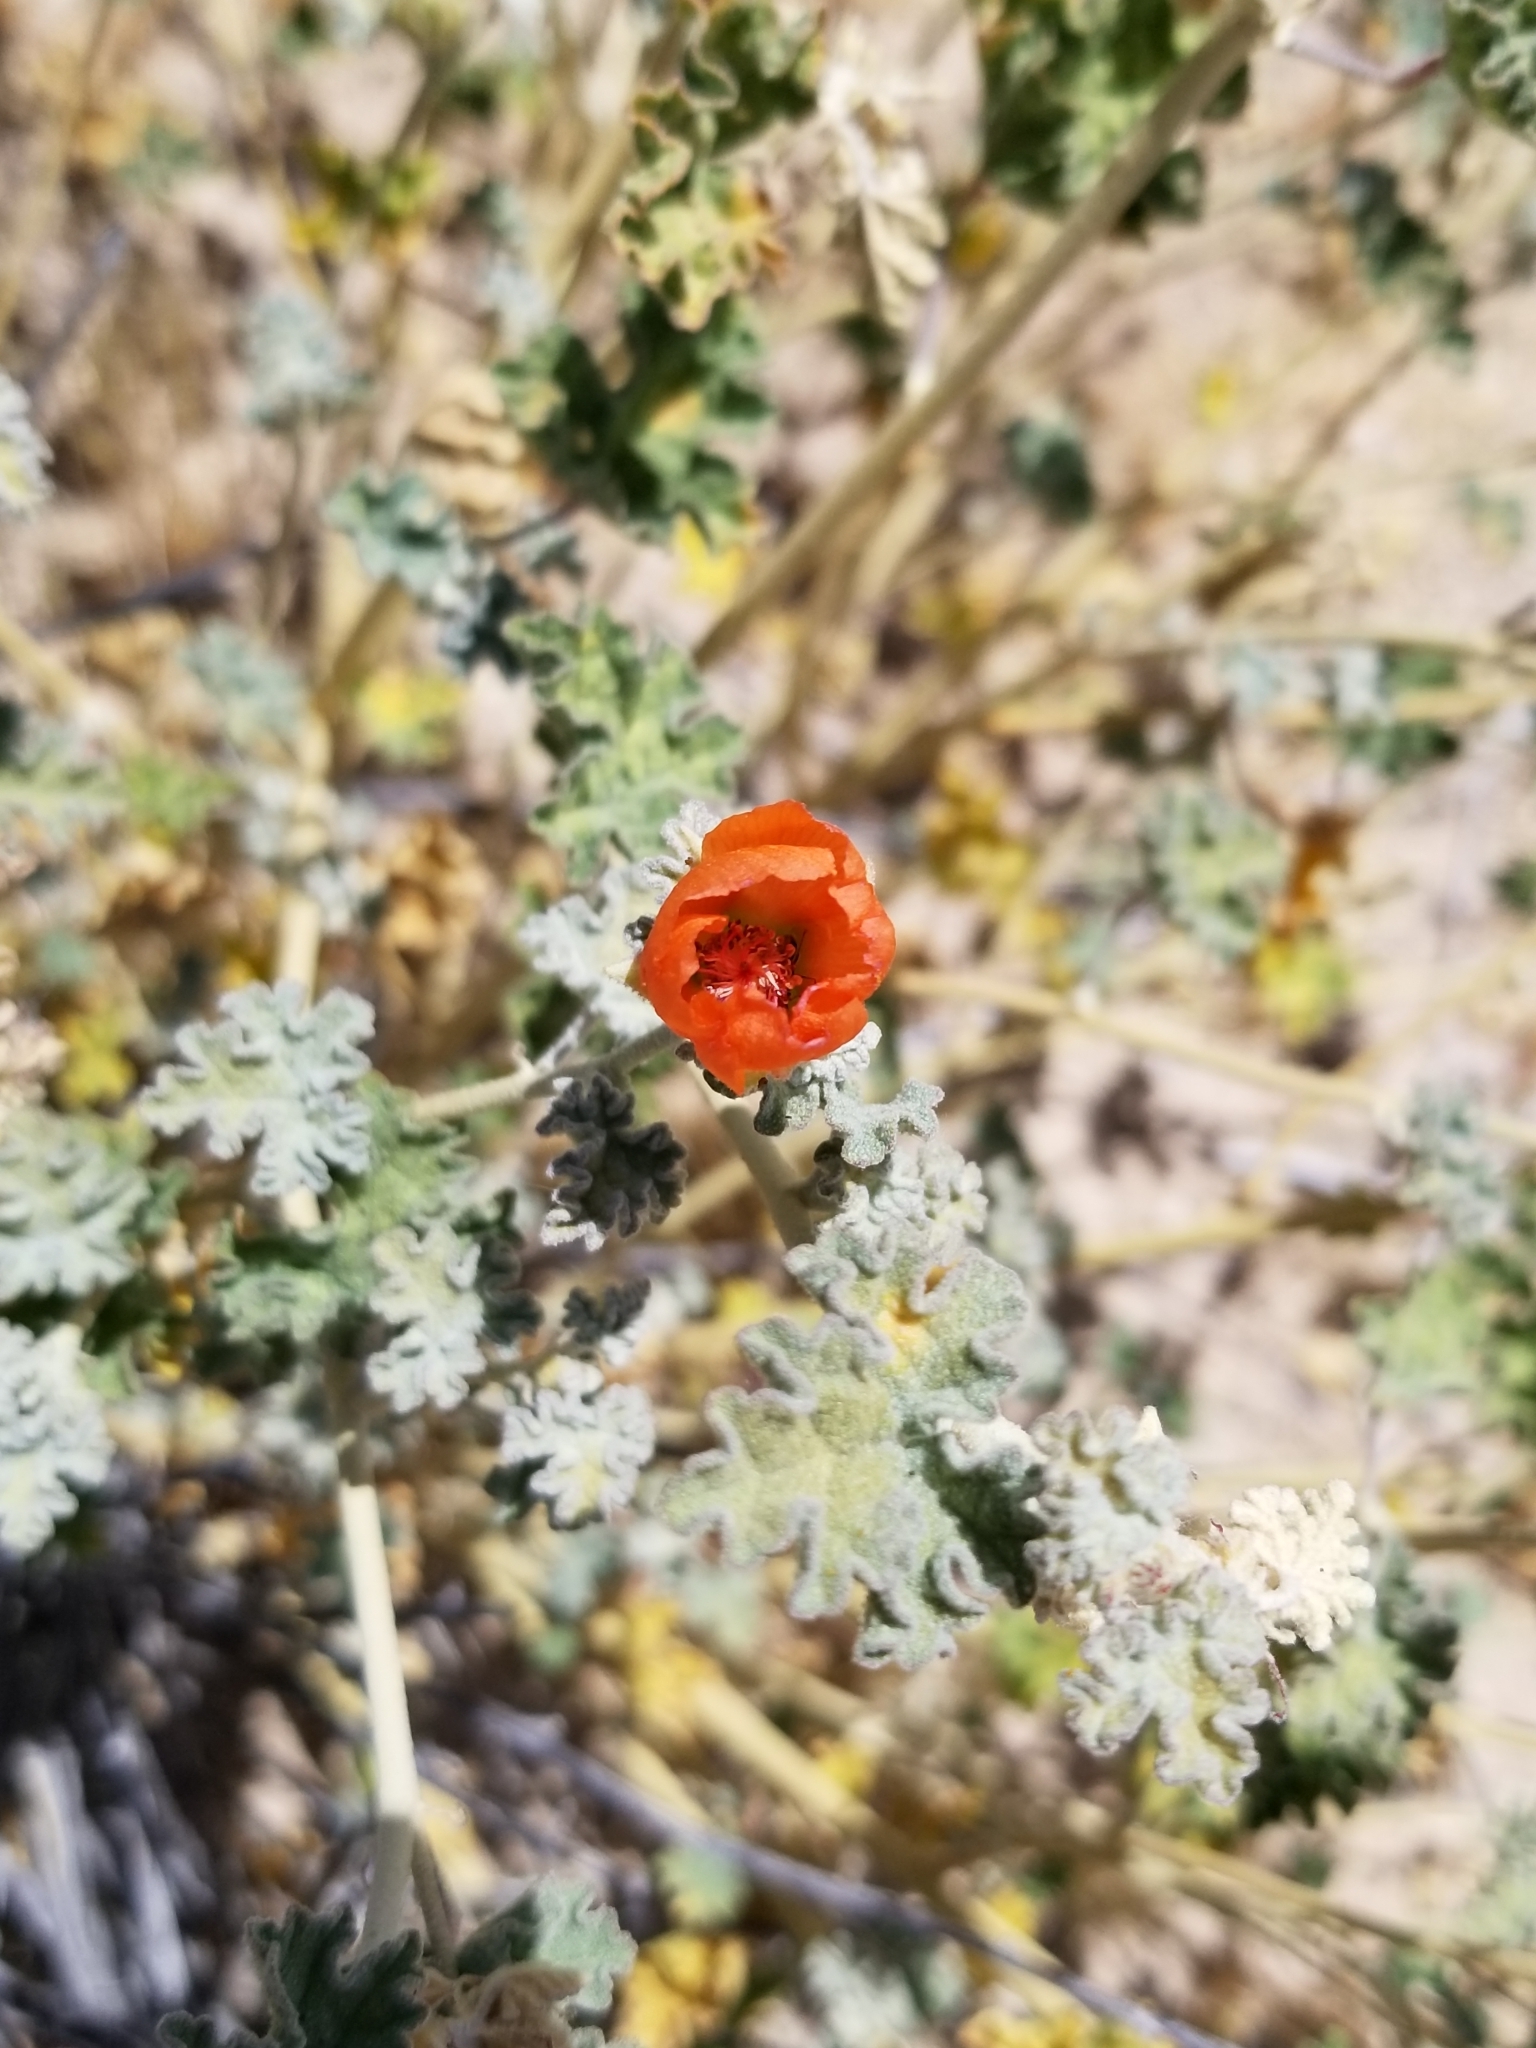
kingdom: Plantae
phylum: Tracheophyta
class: Magnoliopsida
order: Malvales
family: Malvaceae
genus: Sphaeralcea
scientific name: Sphaeralcea ambigua
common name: Apricot globe-mallow
